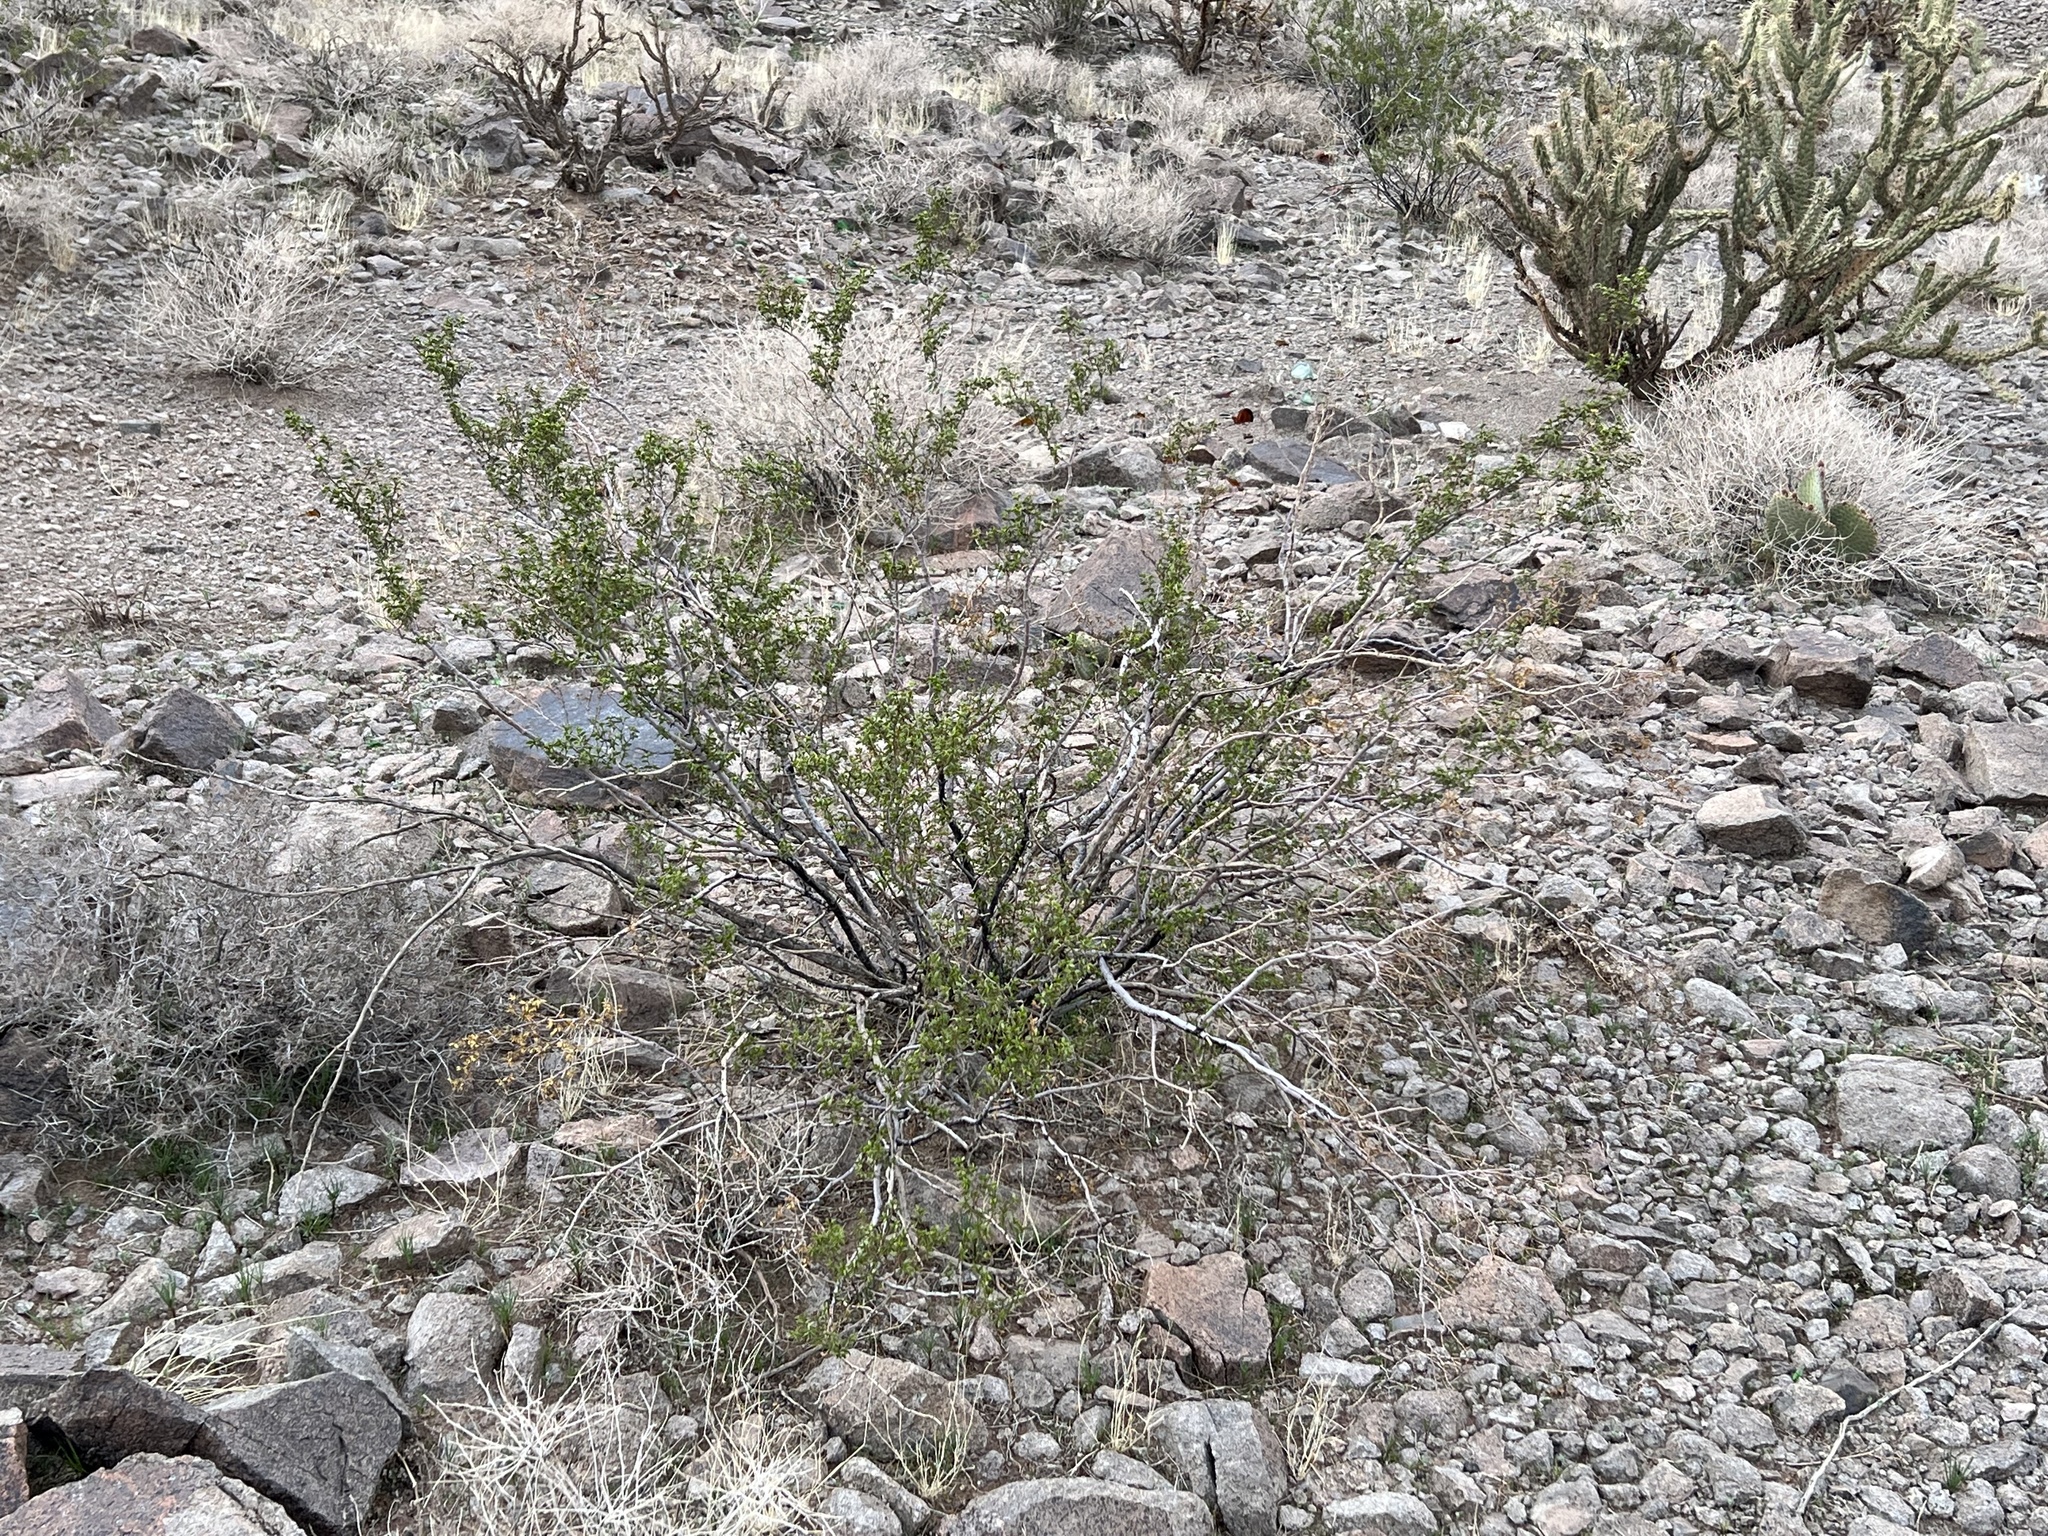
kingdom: Plantae
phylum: Tracheophyta
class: Magnoliopsida
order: Zygophyllales
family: Zygophyllaceae
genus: Larrea
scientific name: Larrea tridentata
